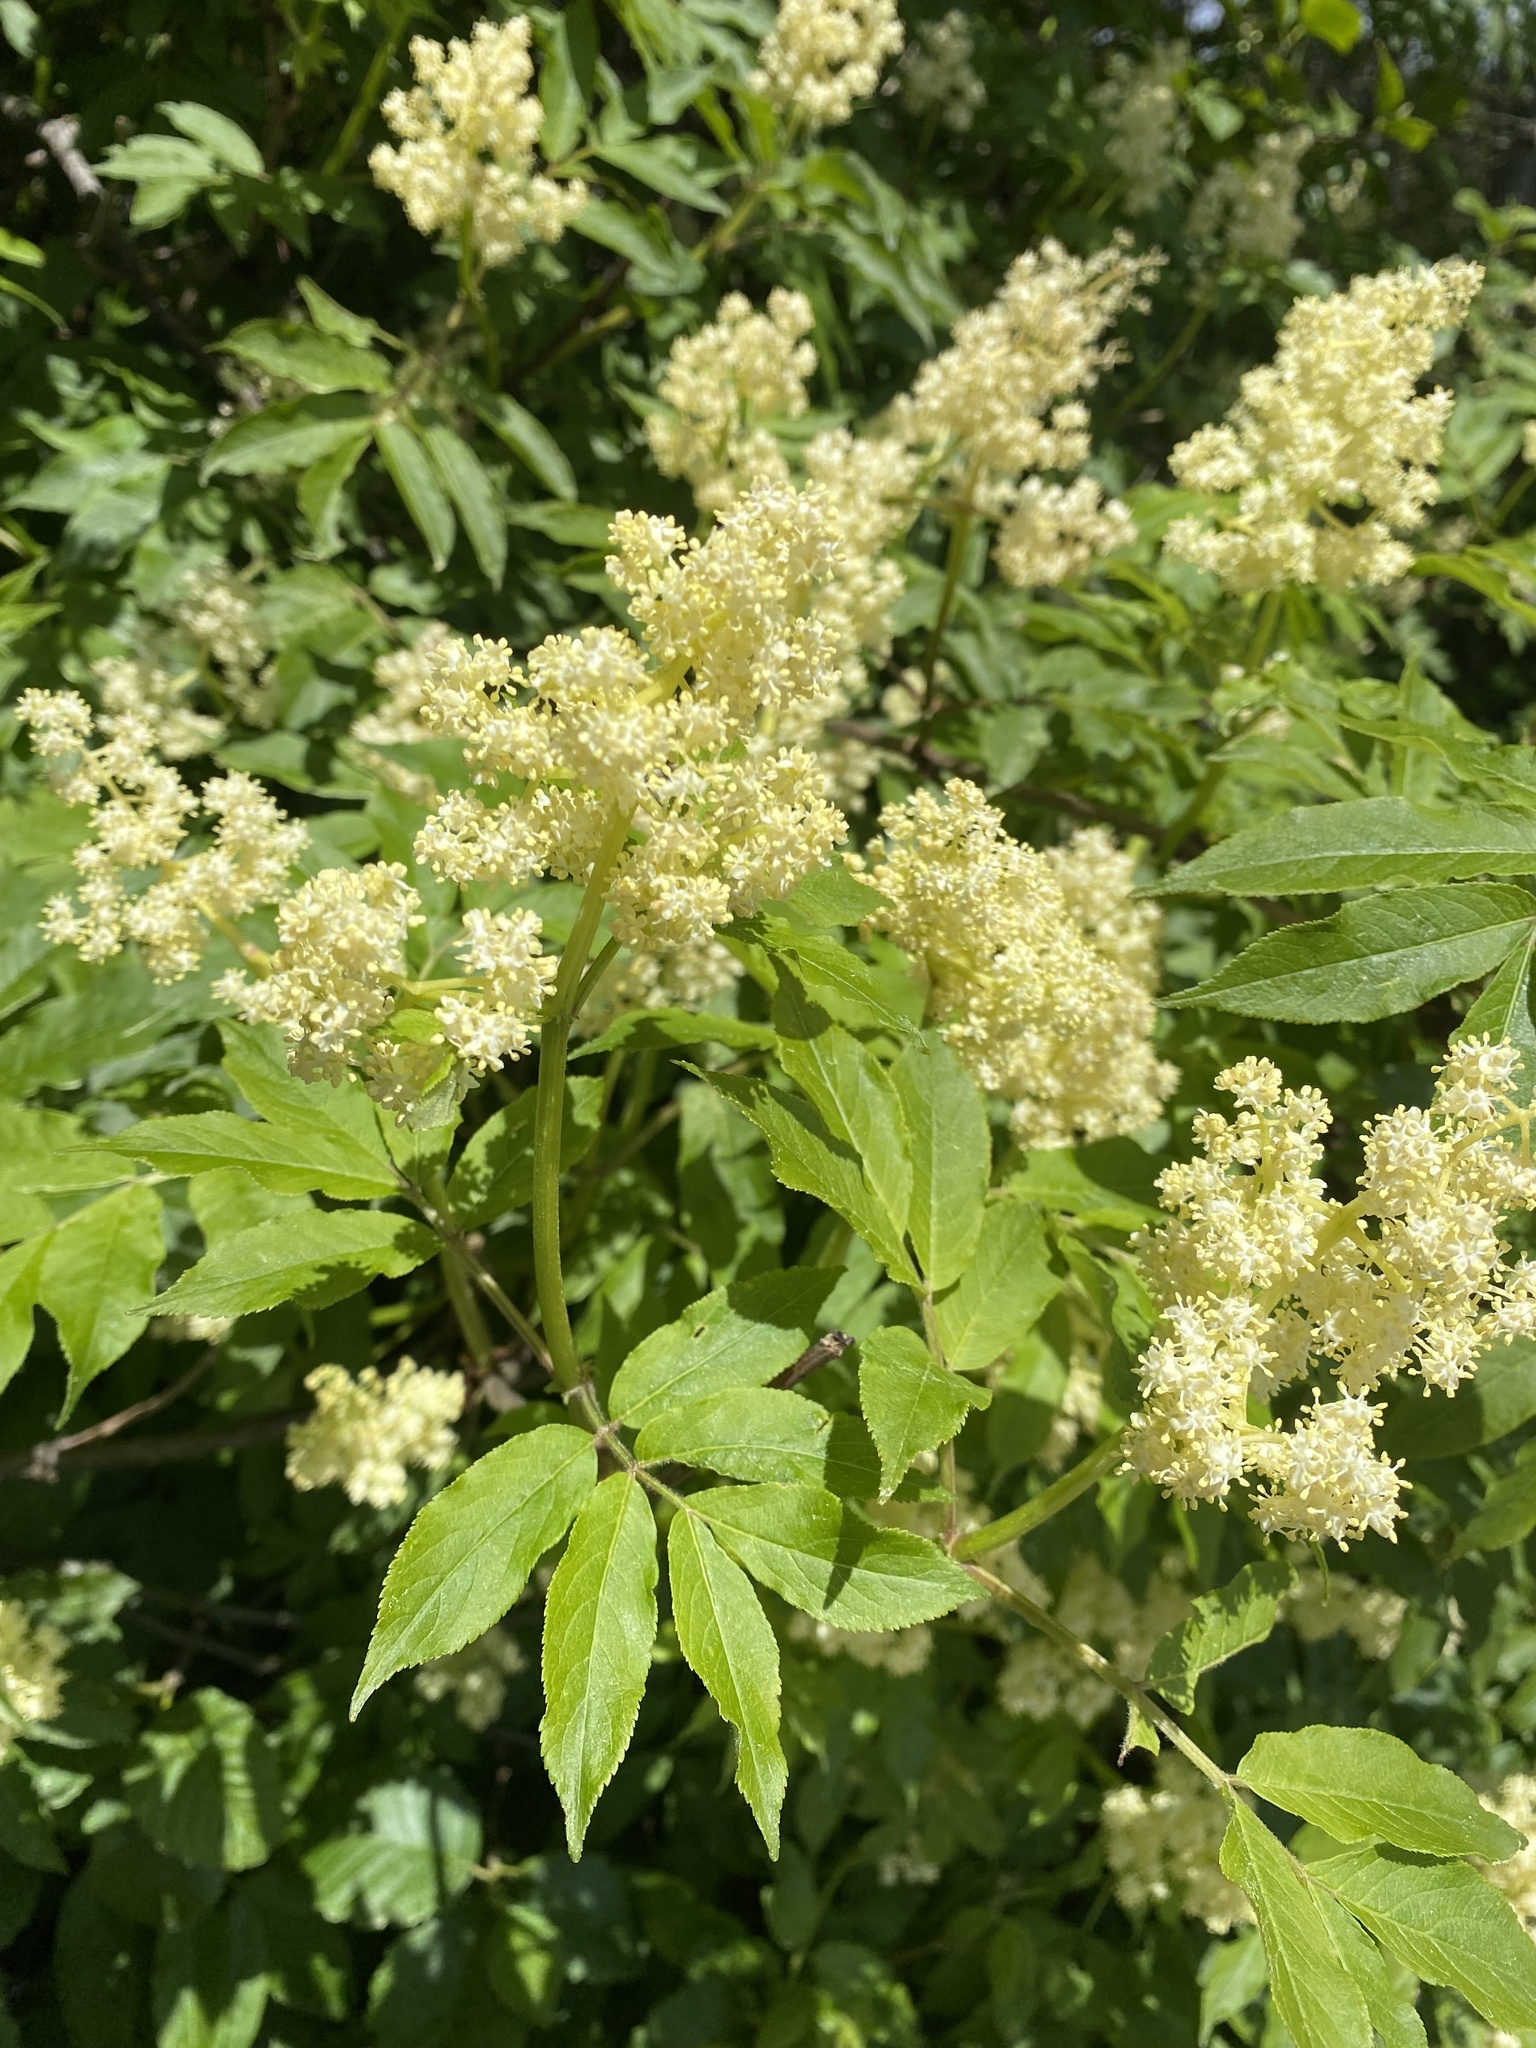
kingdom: Plantae
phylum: Tracheophyta
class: Magnoliopsida
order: Dipsacales
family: Viburnaceae
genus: Sambucus
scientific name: Sambucus racemosa
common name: Red-berried elder
